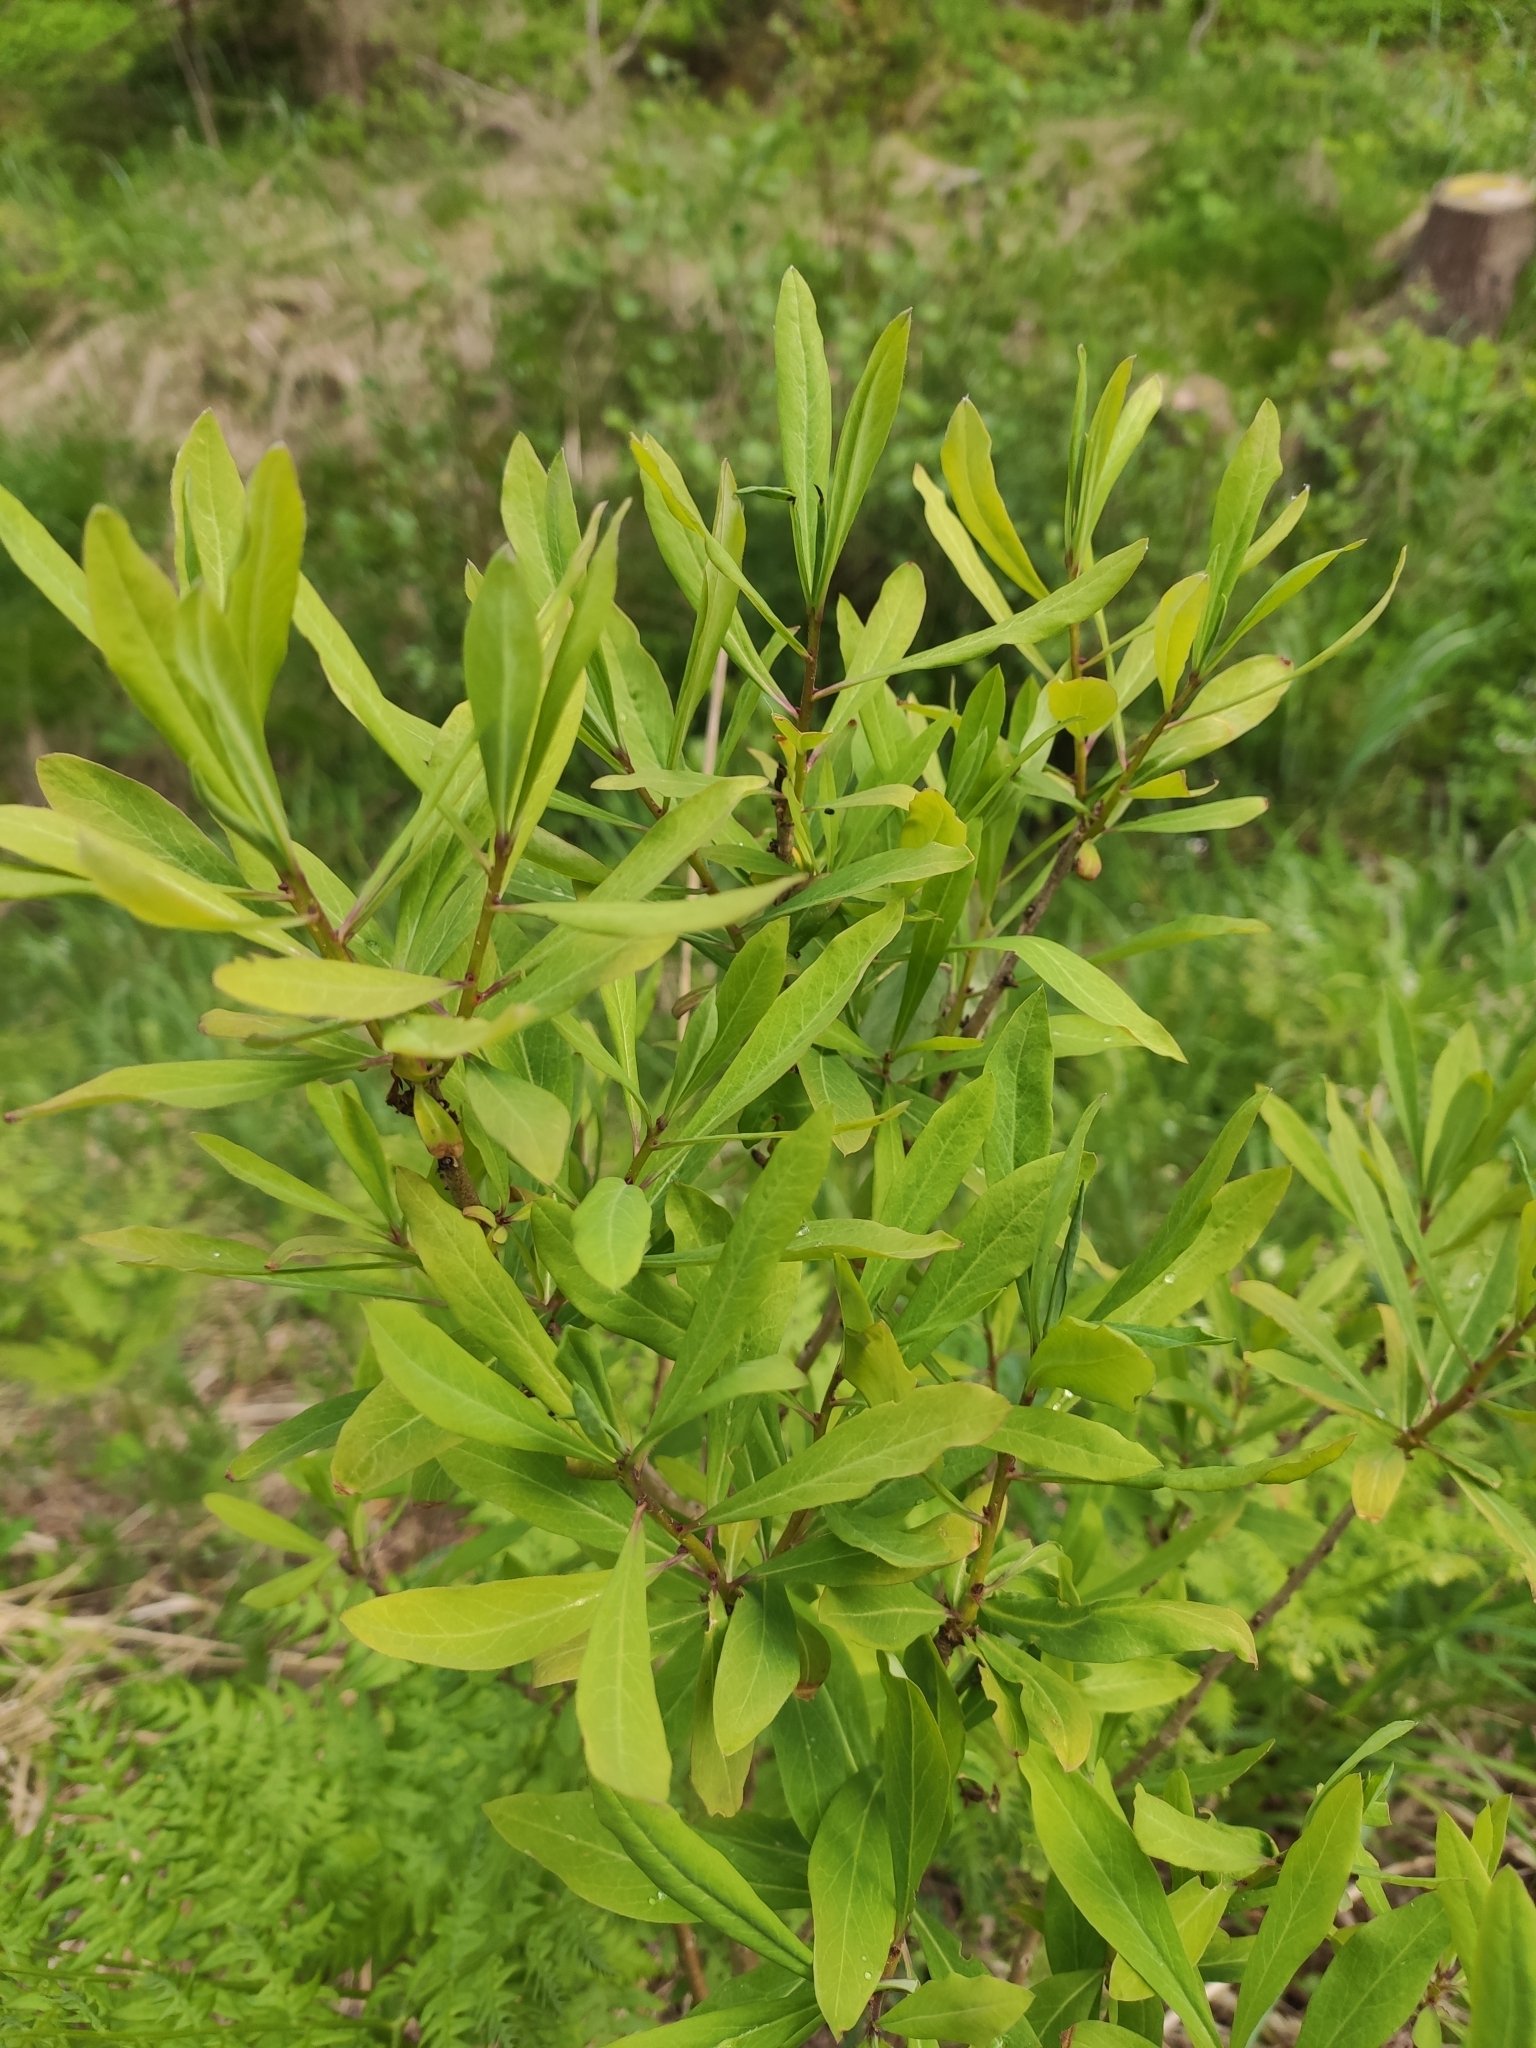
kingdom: Plantae
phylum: Tracheophyta
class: Magnoliopsida
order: Malvales
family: Thymelaeaceae
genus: Daphne
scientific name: Daphne mezereum
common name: Mezereon
